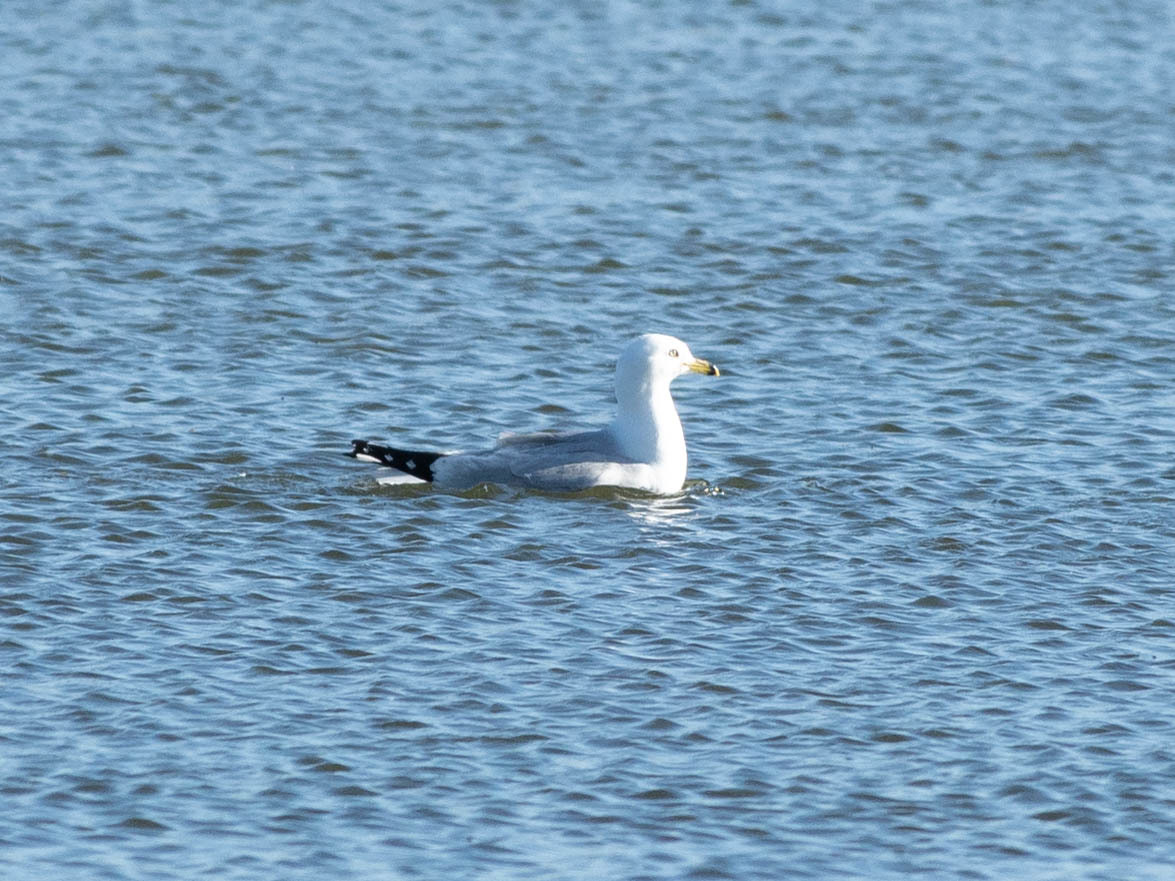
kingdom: Animalia
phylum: Chordata
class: Aves
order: Charadriiformes
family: Laridae
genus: Larus
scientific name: Larus delawarensis
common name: Ring-billed gull
